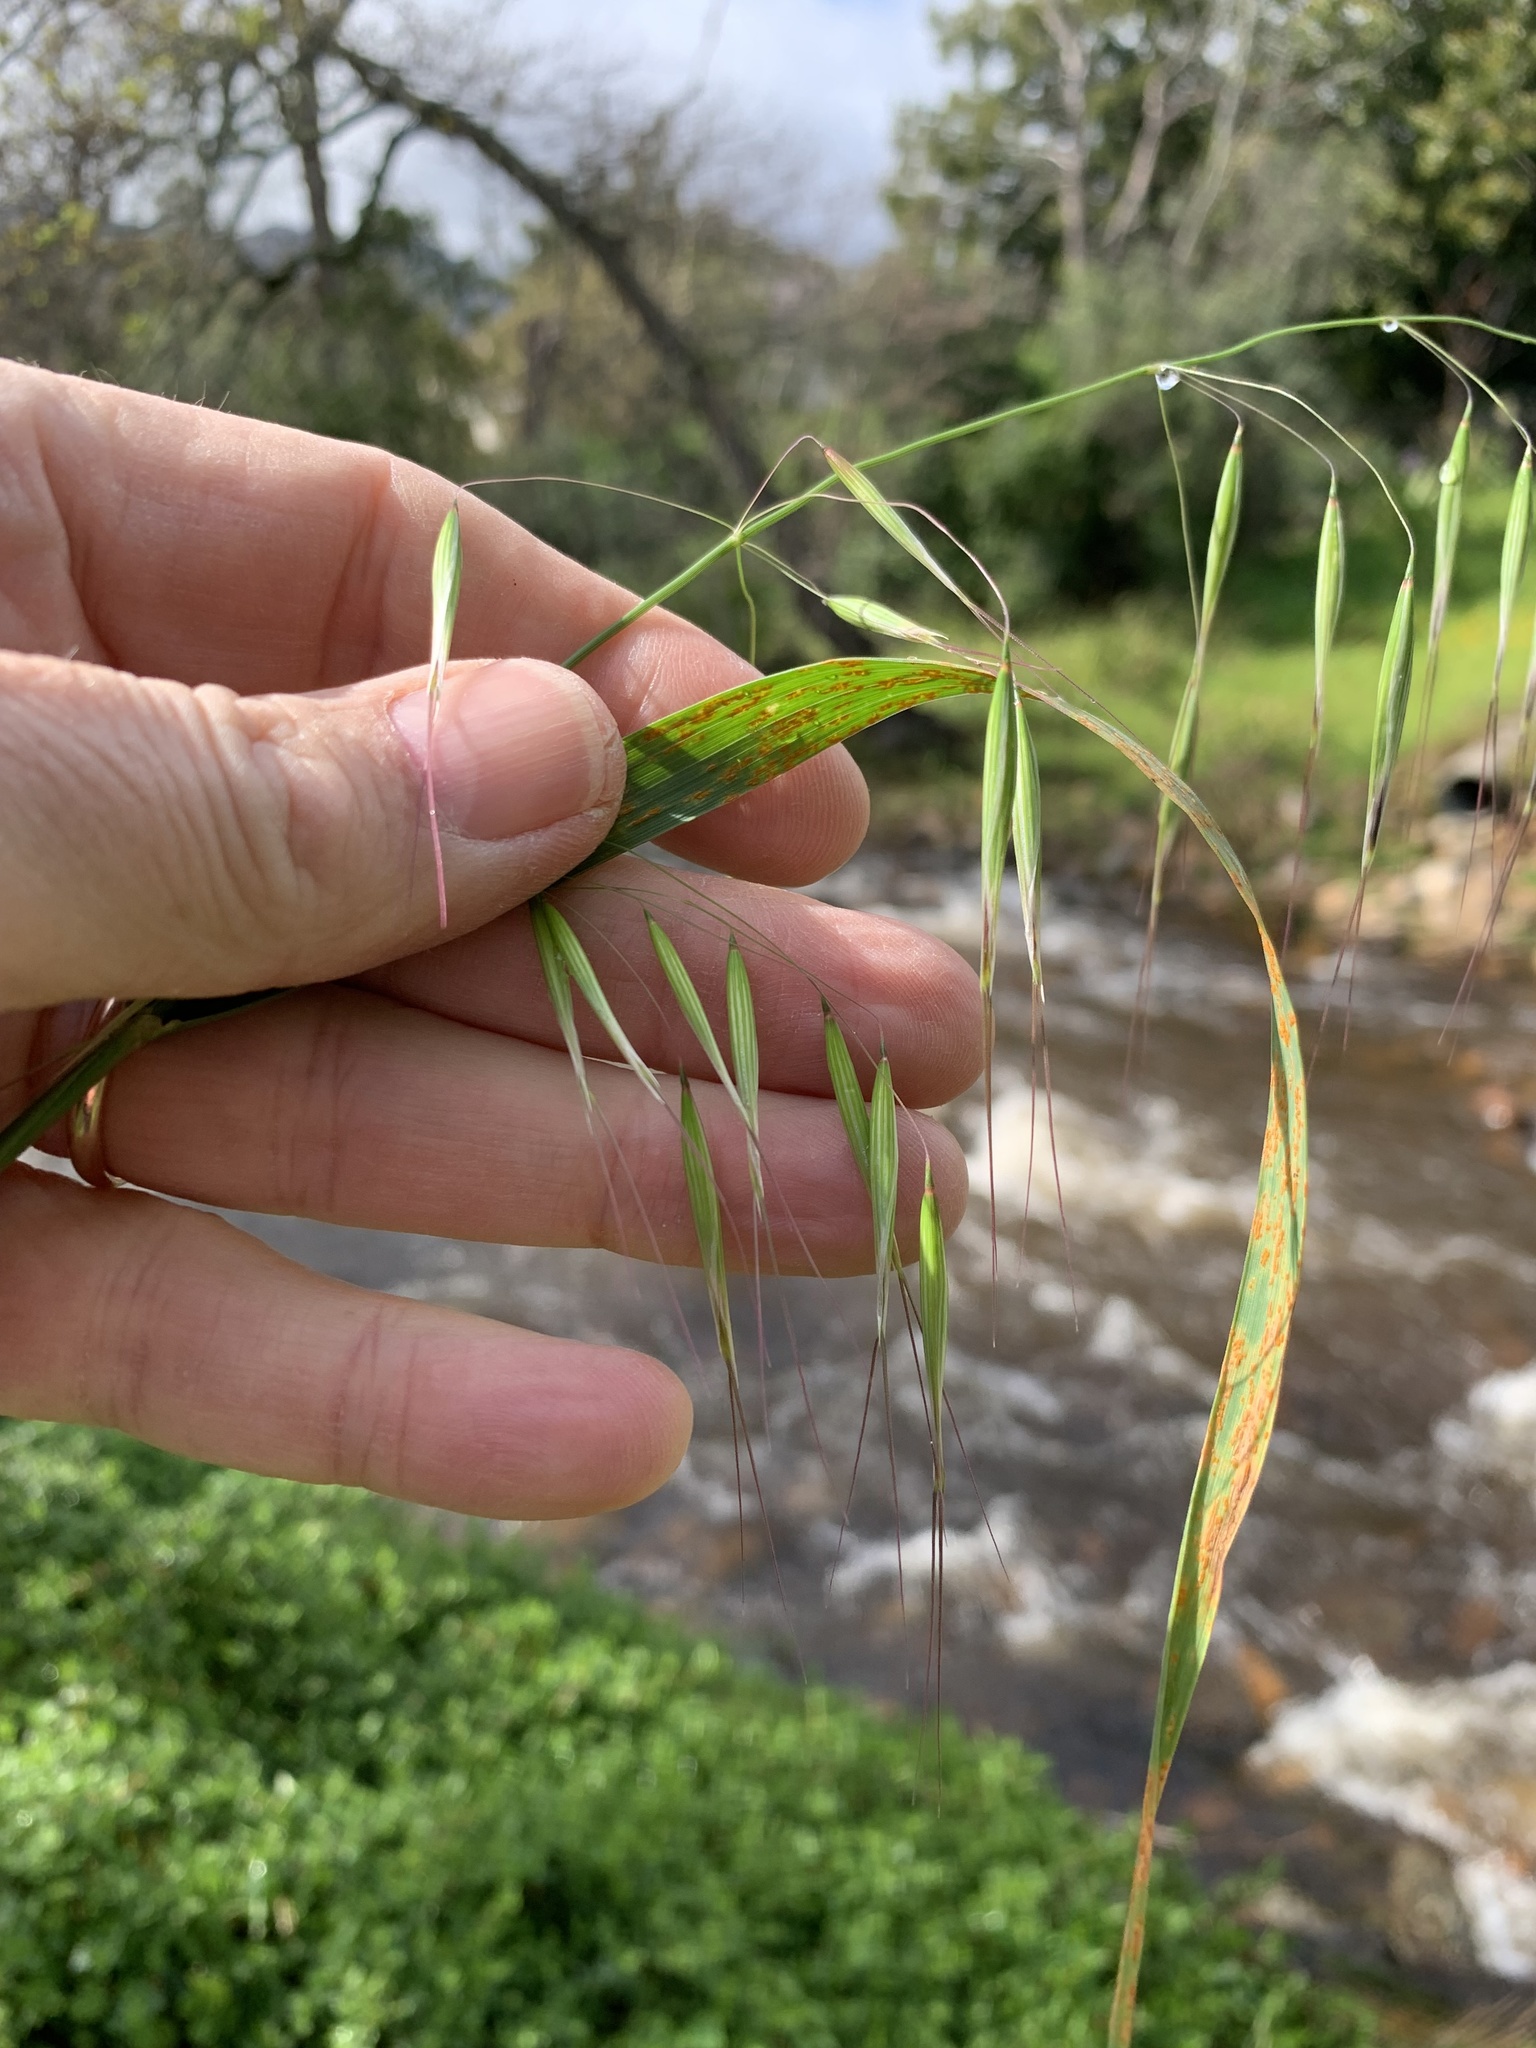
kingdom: Plantae
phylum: Tracheophyta
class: Liliopsida
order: Poales
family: Poaceae
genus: Avena
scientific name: Avena fatua
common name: Wild oat
